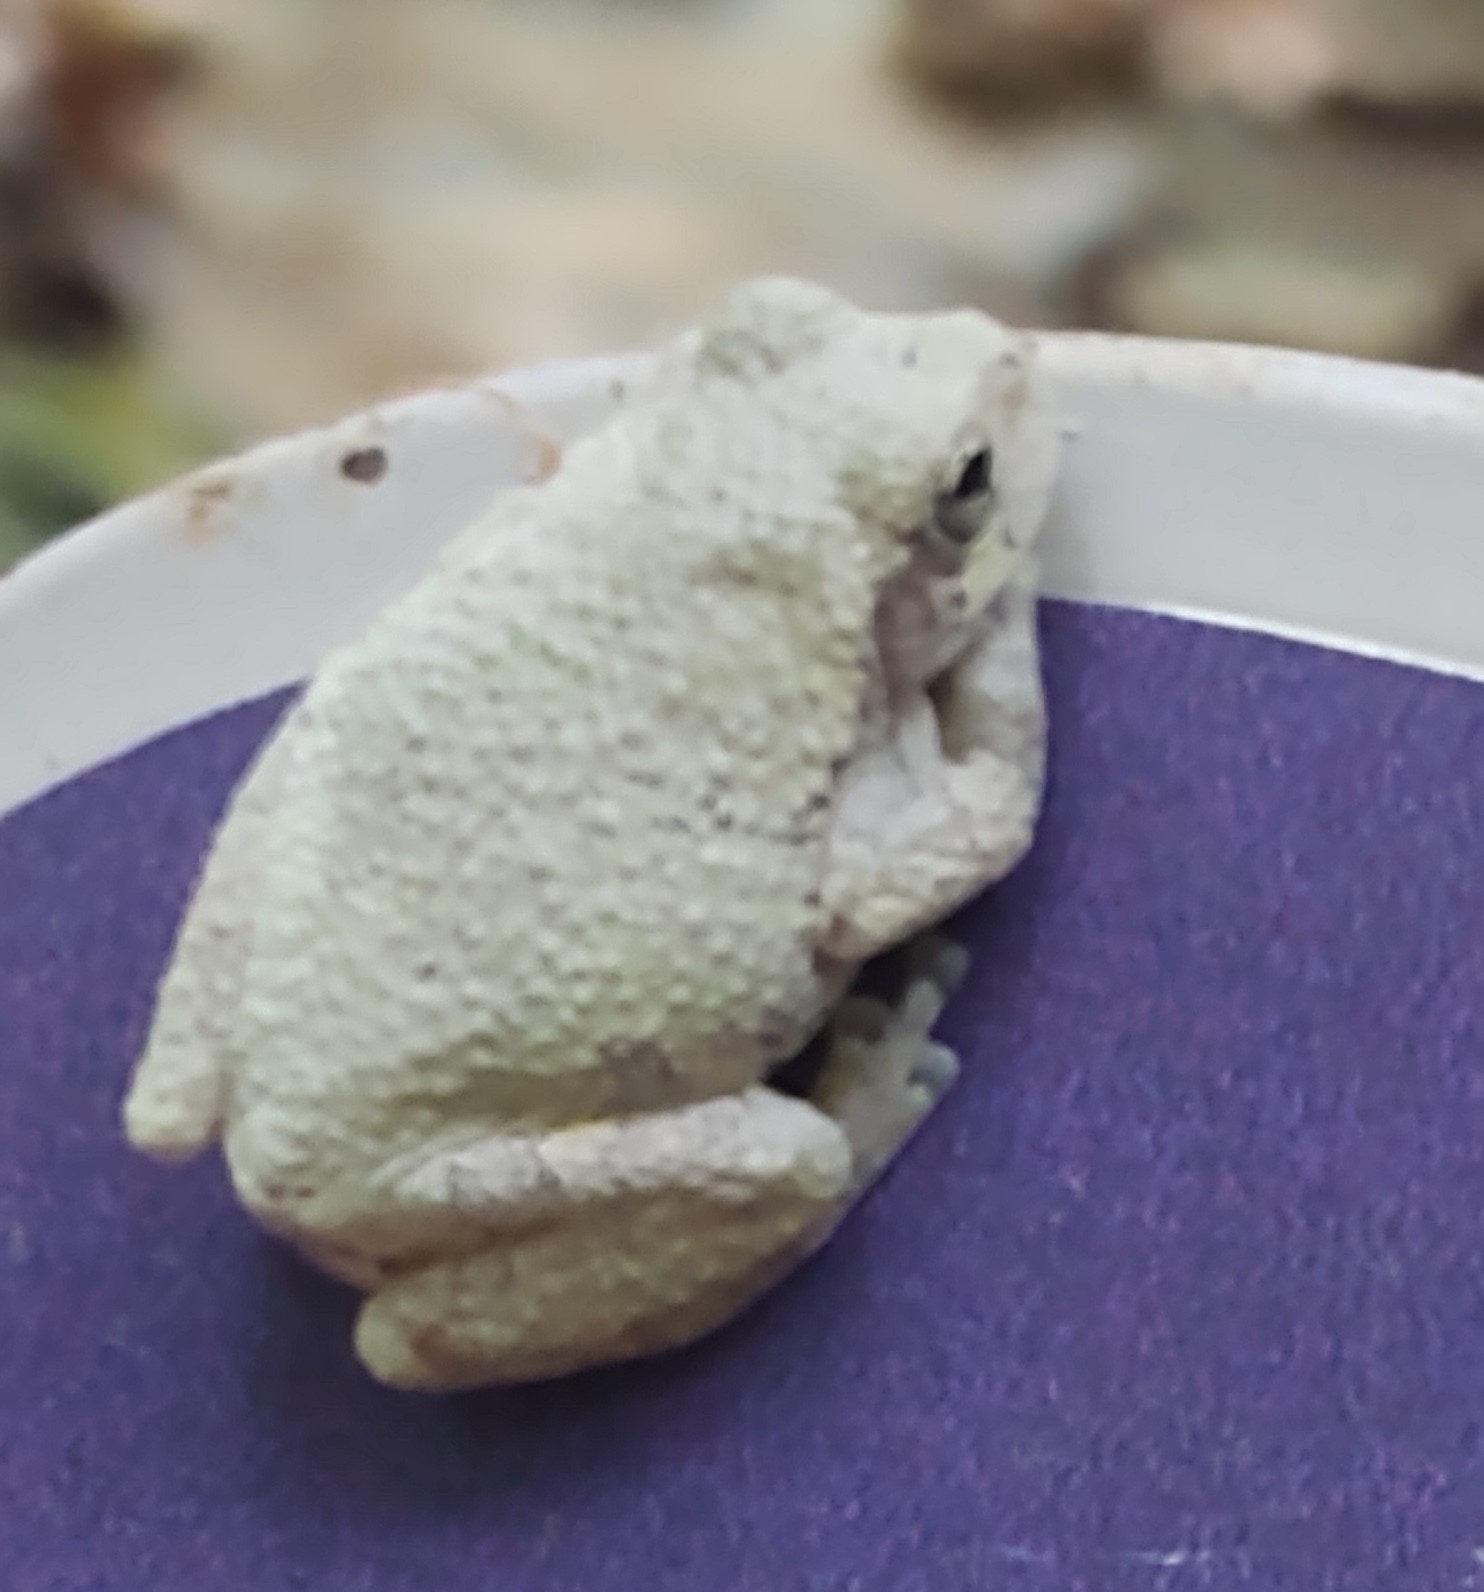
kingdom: Animalia
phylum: Chordata
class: Amphibia
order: Anura
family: Hylidae
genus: Dryophytes
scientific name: Dryophytes chrysoscelis
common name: Cope's gray treefrog
